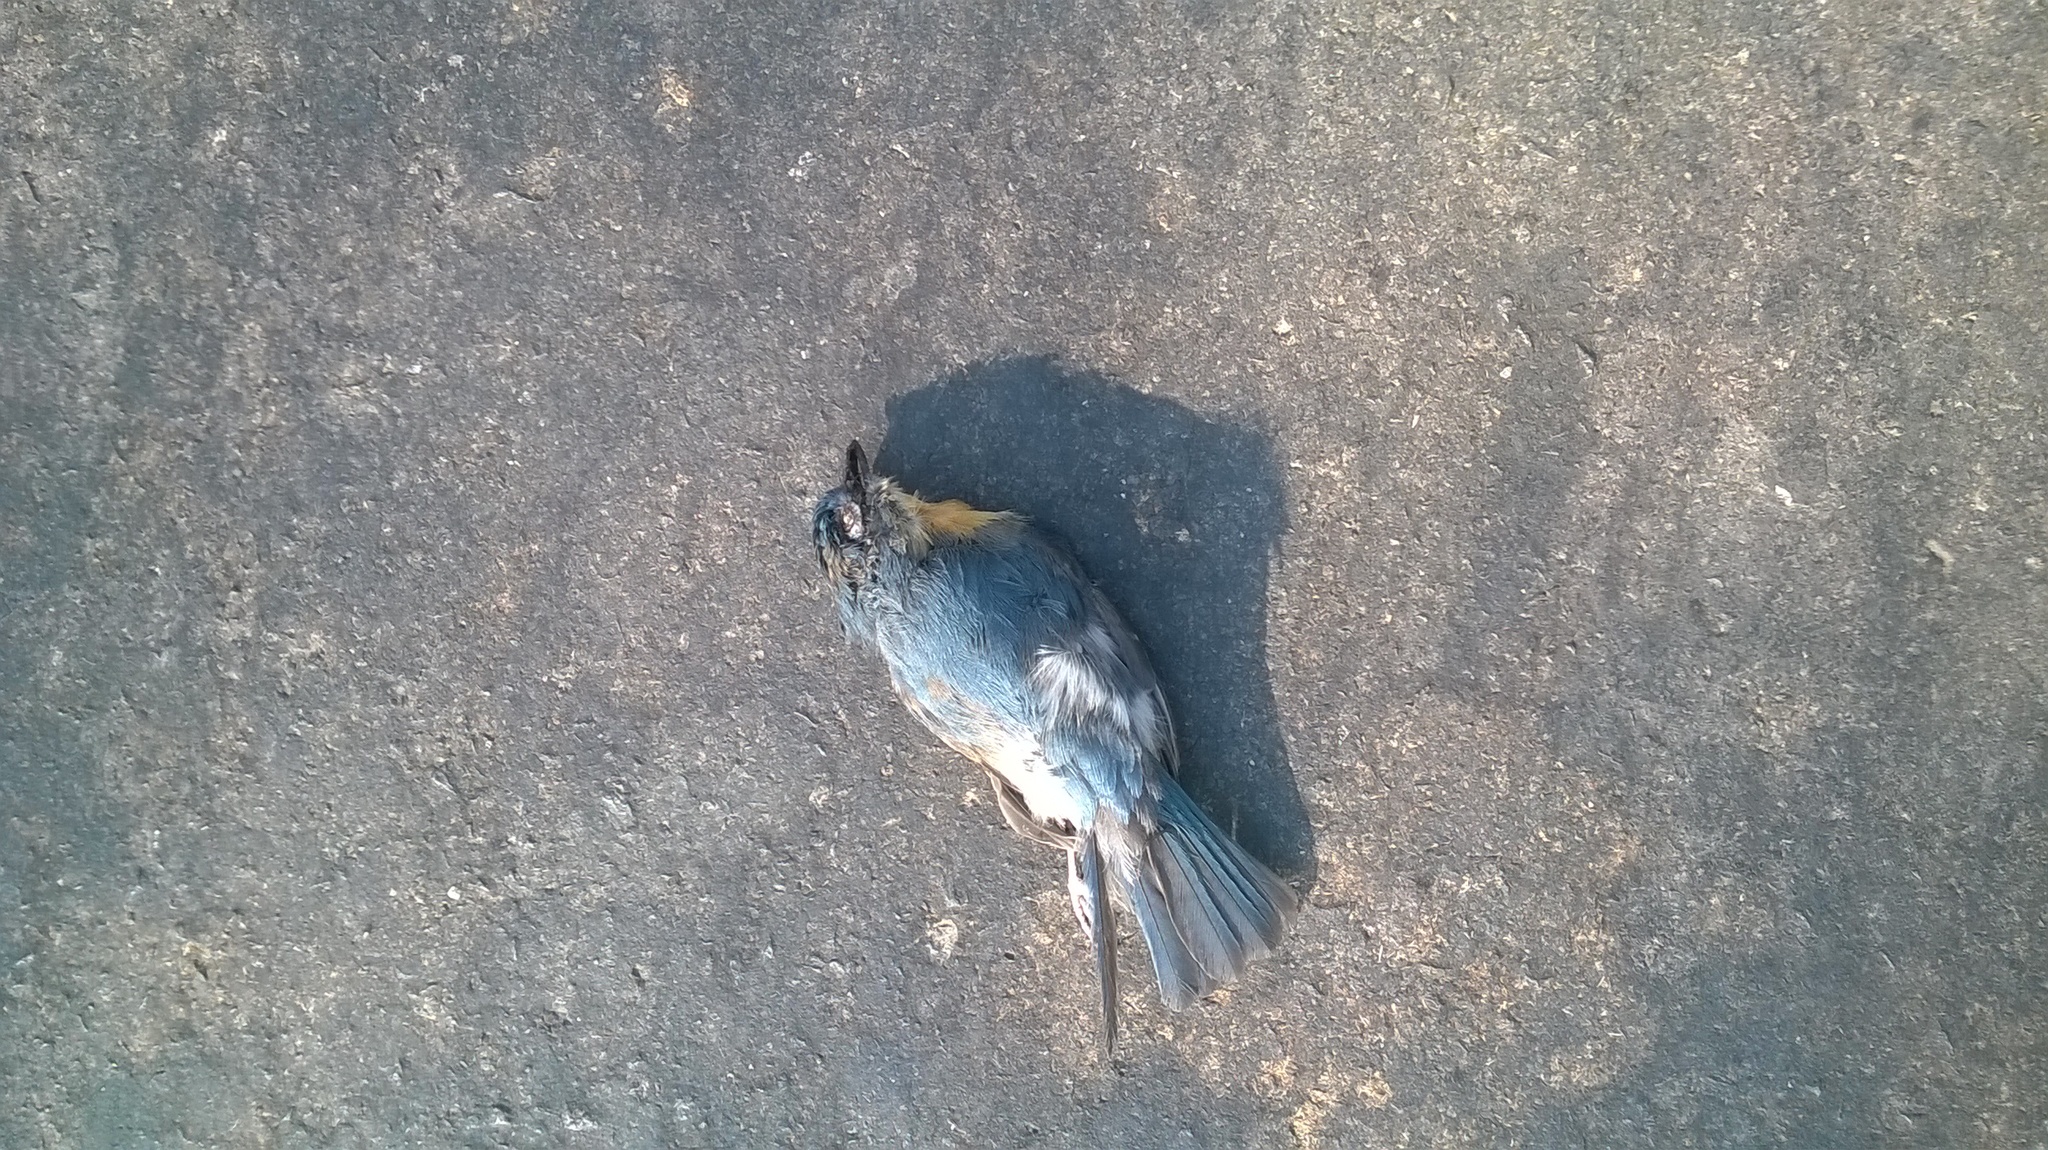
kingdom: Animalia
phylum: Chordata
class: Aves
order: Passeriformes
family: Muscicapidae
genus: Cyornis
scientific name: Cyornis tickelliae
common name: Tickell's blue flycatcher
